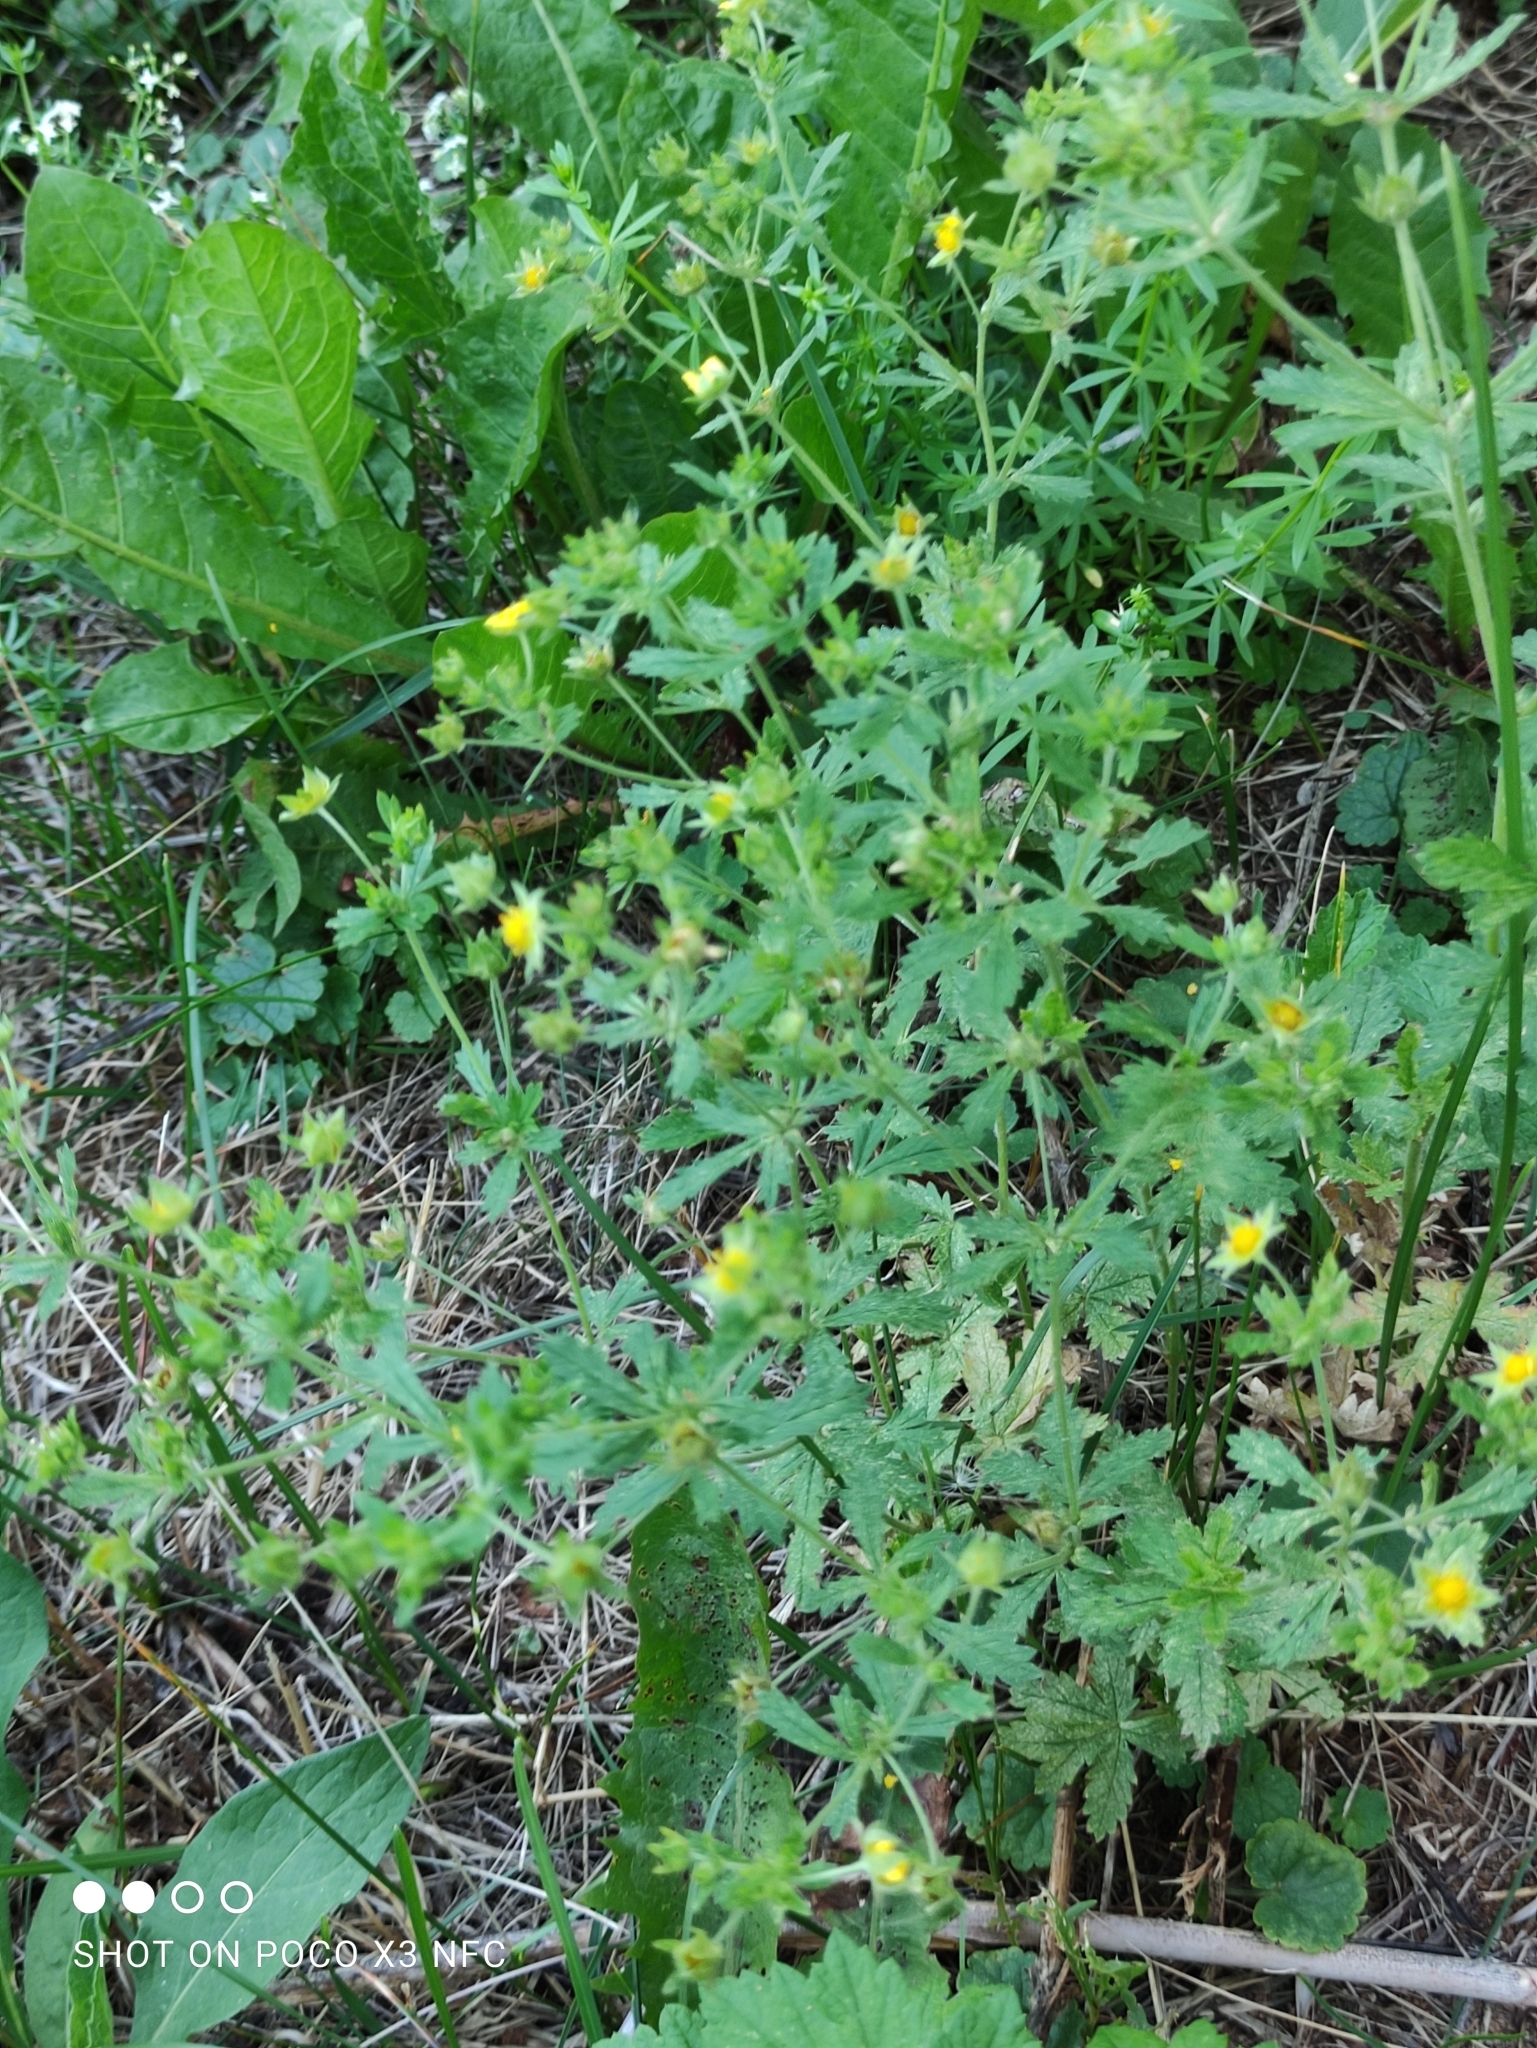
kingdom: Plantae
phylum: Tracheophyta
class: Magnoliopsida
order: Rosales
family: Rosaceae
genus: Potentilla
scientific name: Potentilla intermedia
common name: Downy cinquefoil
